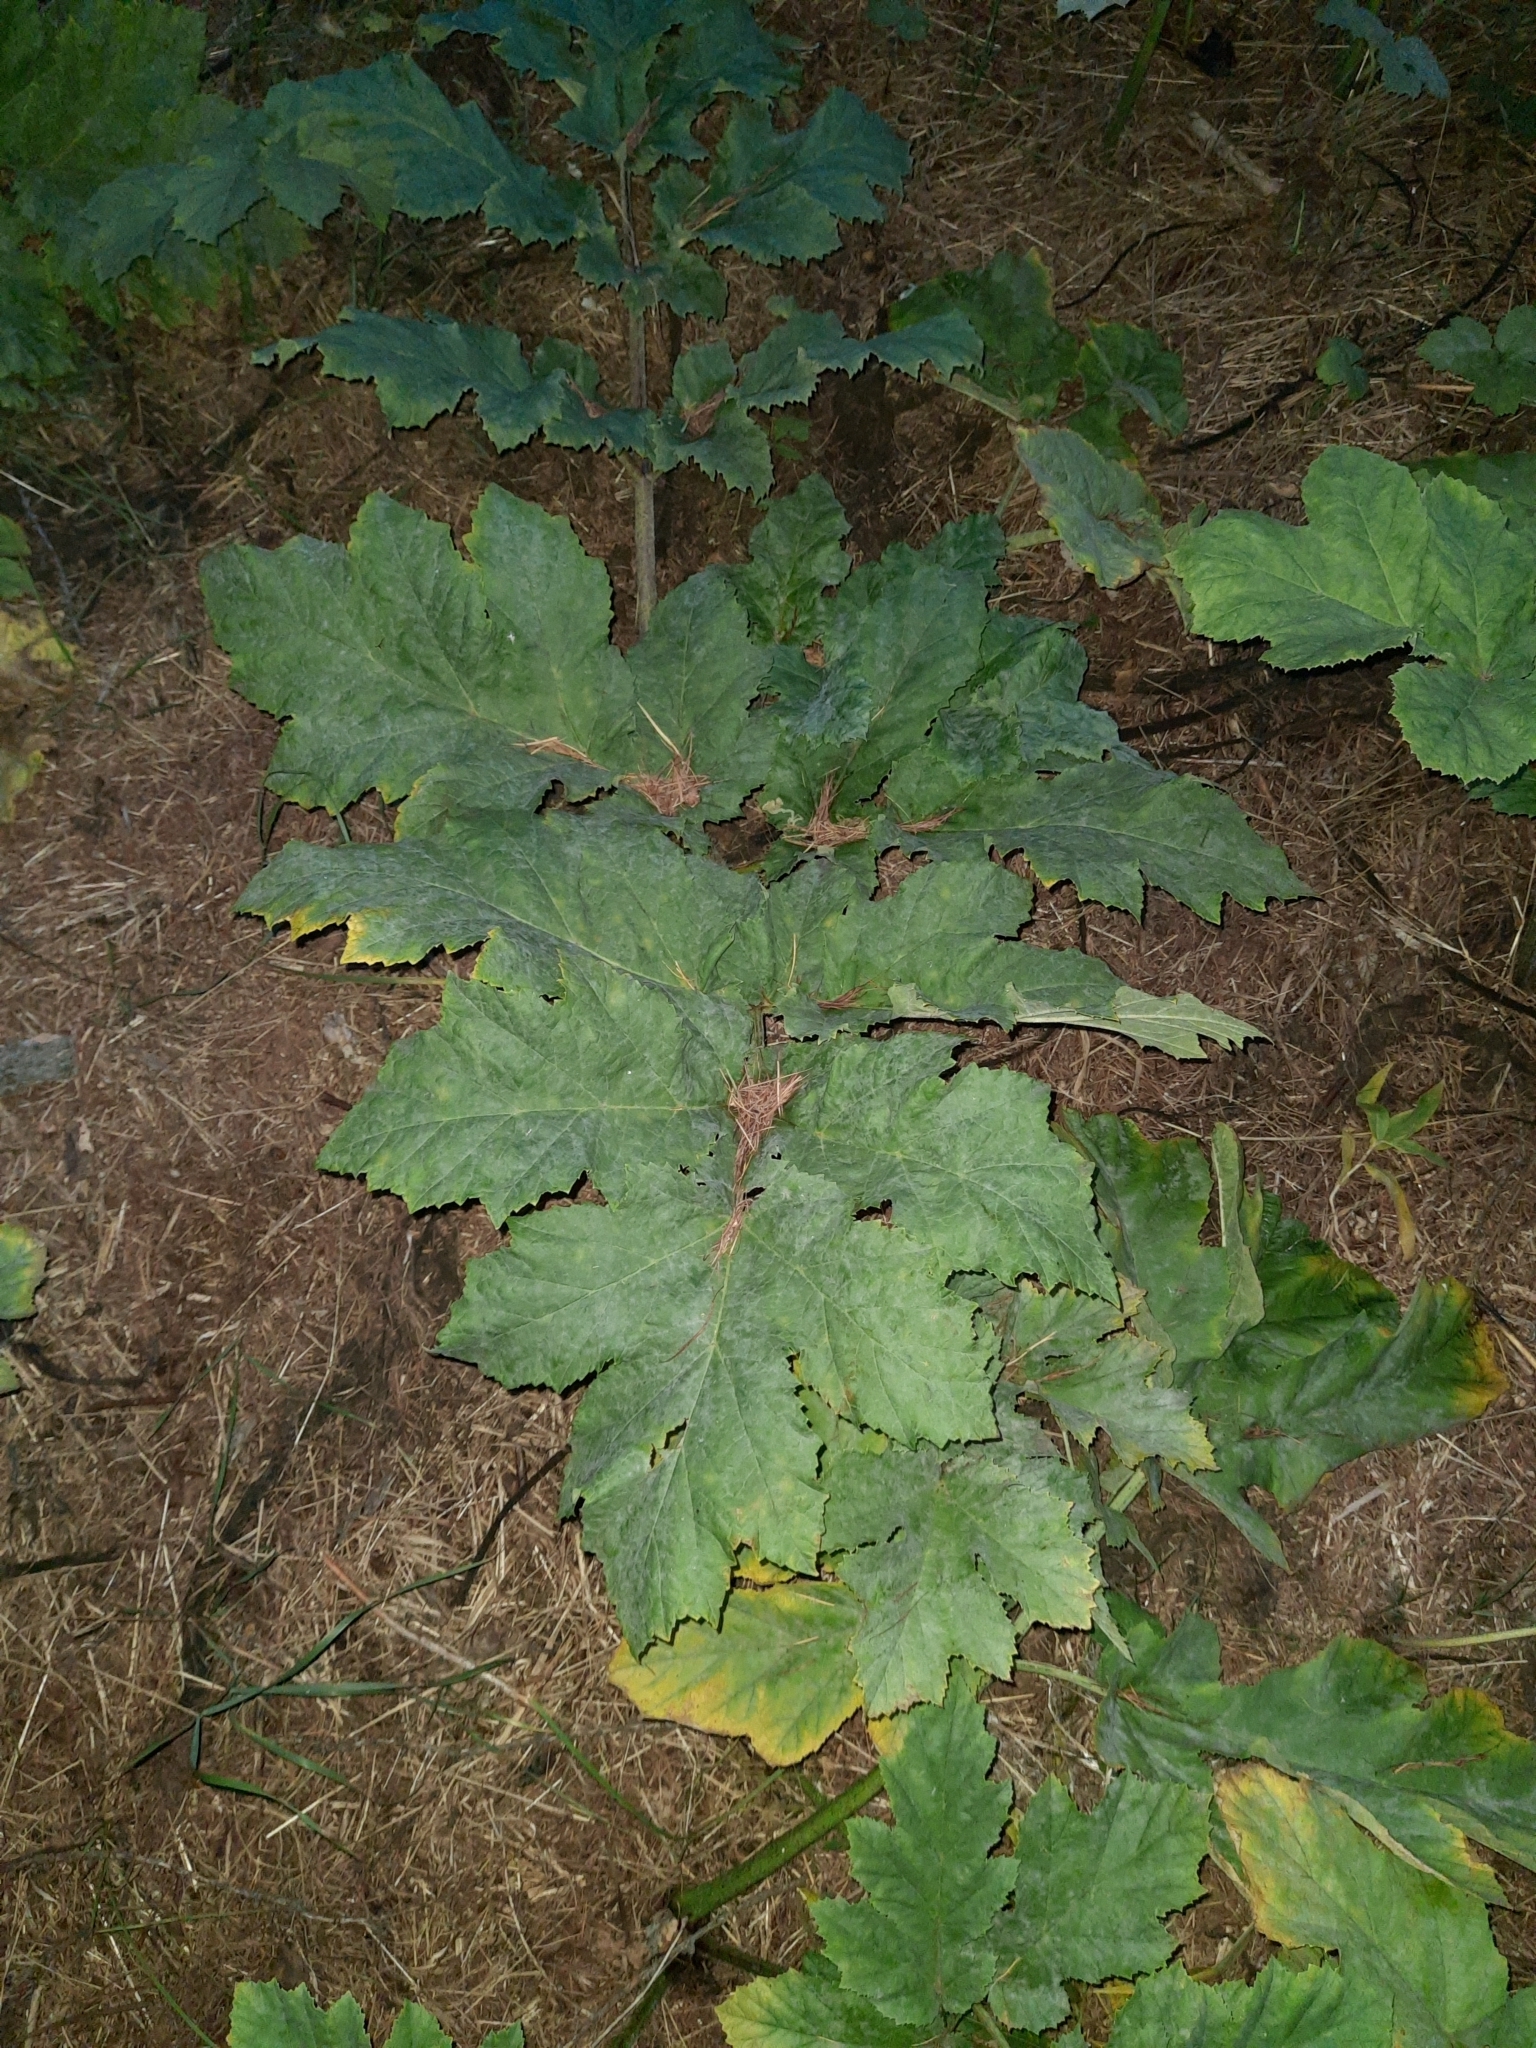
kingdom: Plantae
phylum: Tracheophyta
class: Magnoliopsida
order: Apiales
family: Apiaceae
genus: Heracleum
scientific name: Heracleum sosnowskyi
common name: Sosnowsky's hogweed
